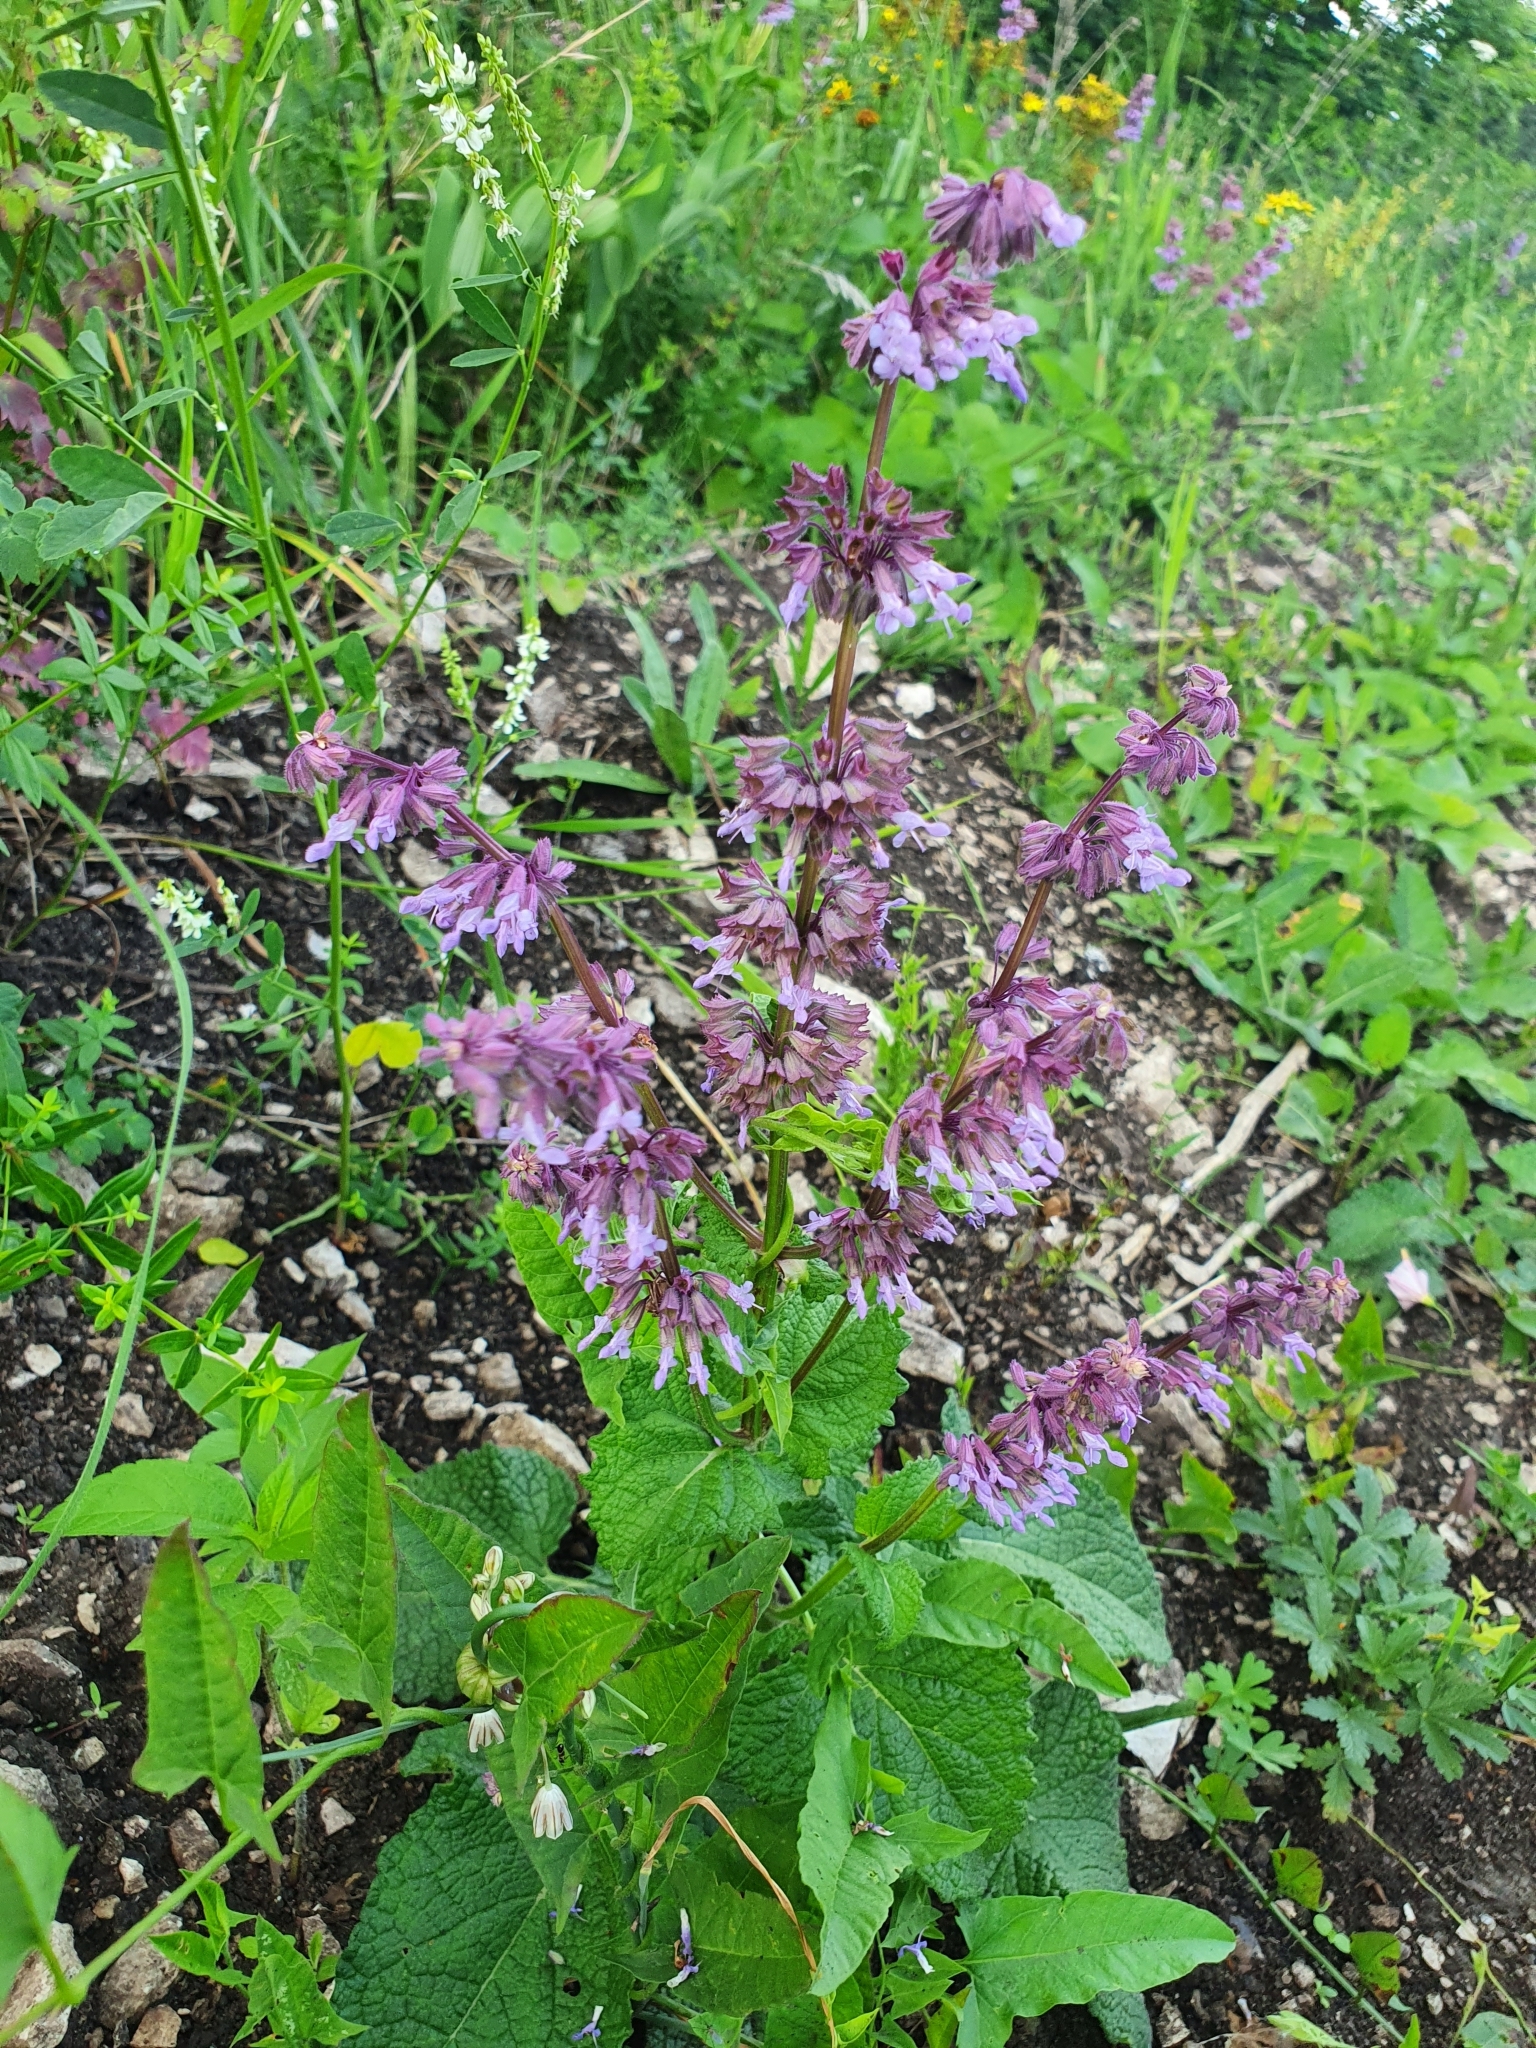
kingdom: Plantae
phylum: Tracheophyta
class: Magnoliopsida
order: Lamiales
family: Lamiaceae
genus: Salvia
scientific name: Salvia verticillata
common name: Whorled clary
